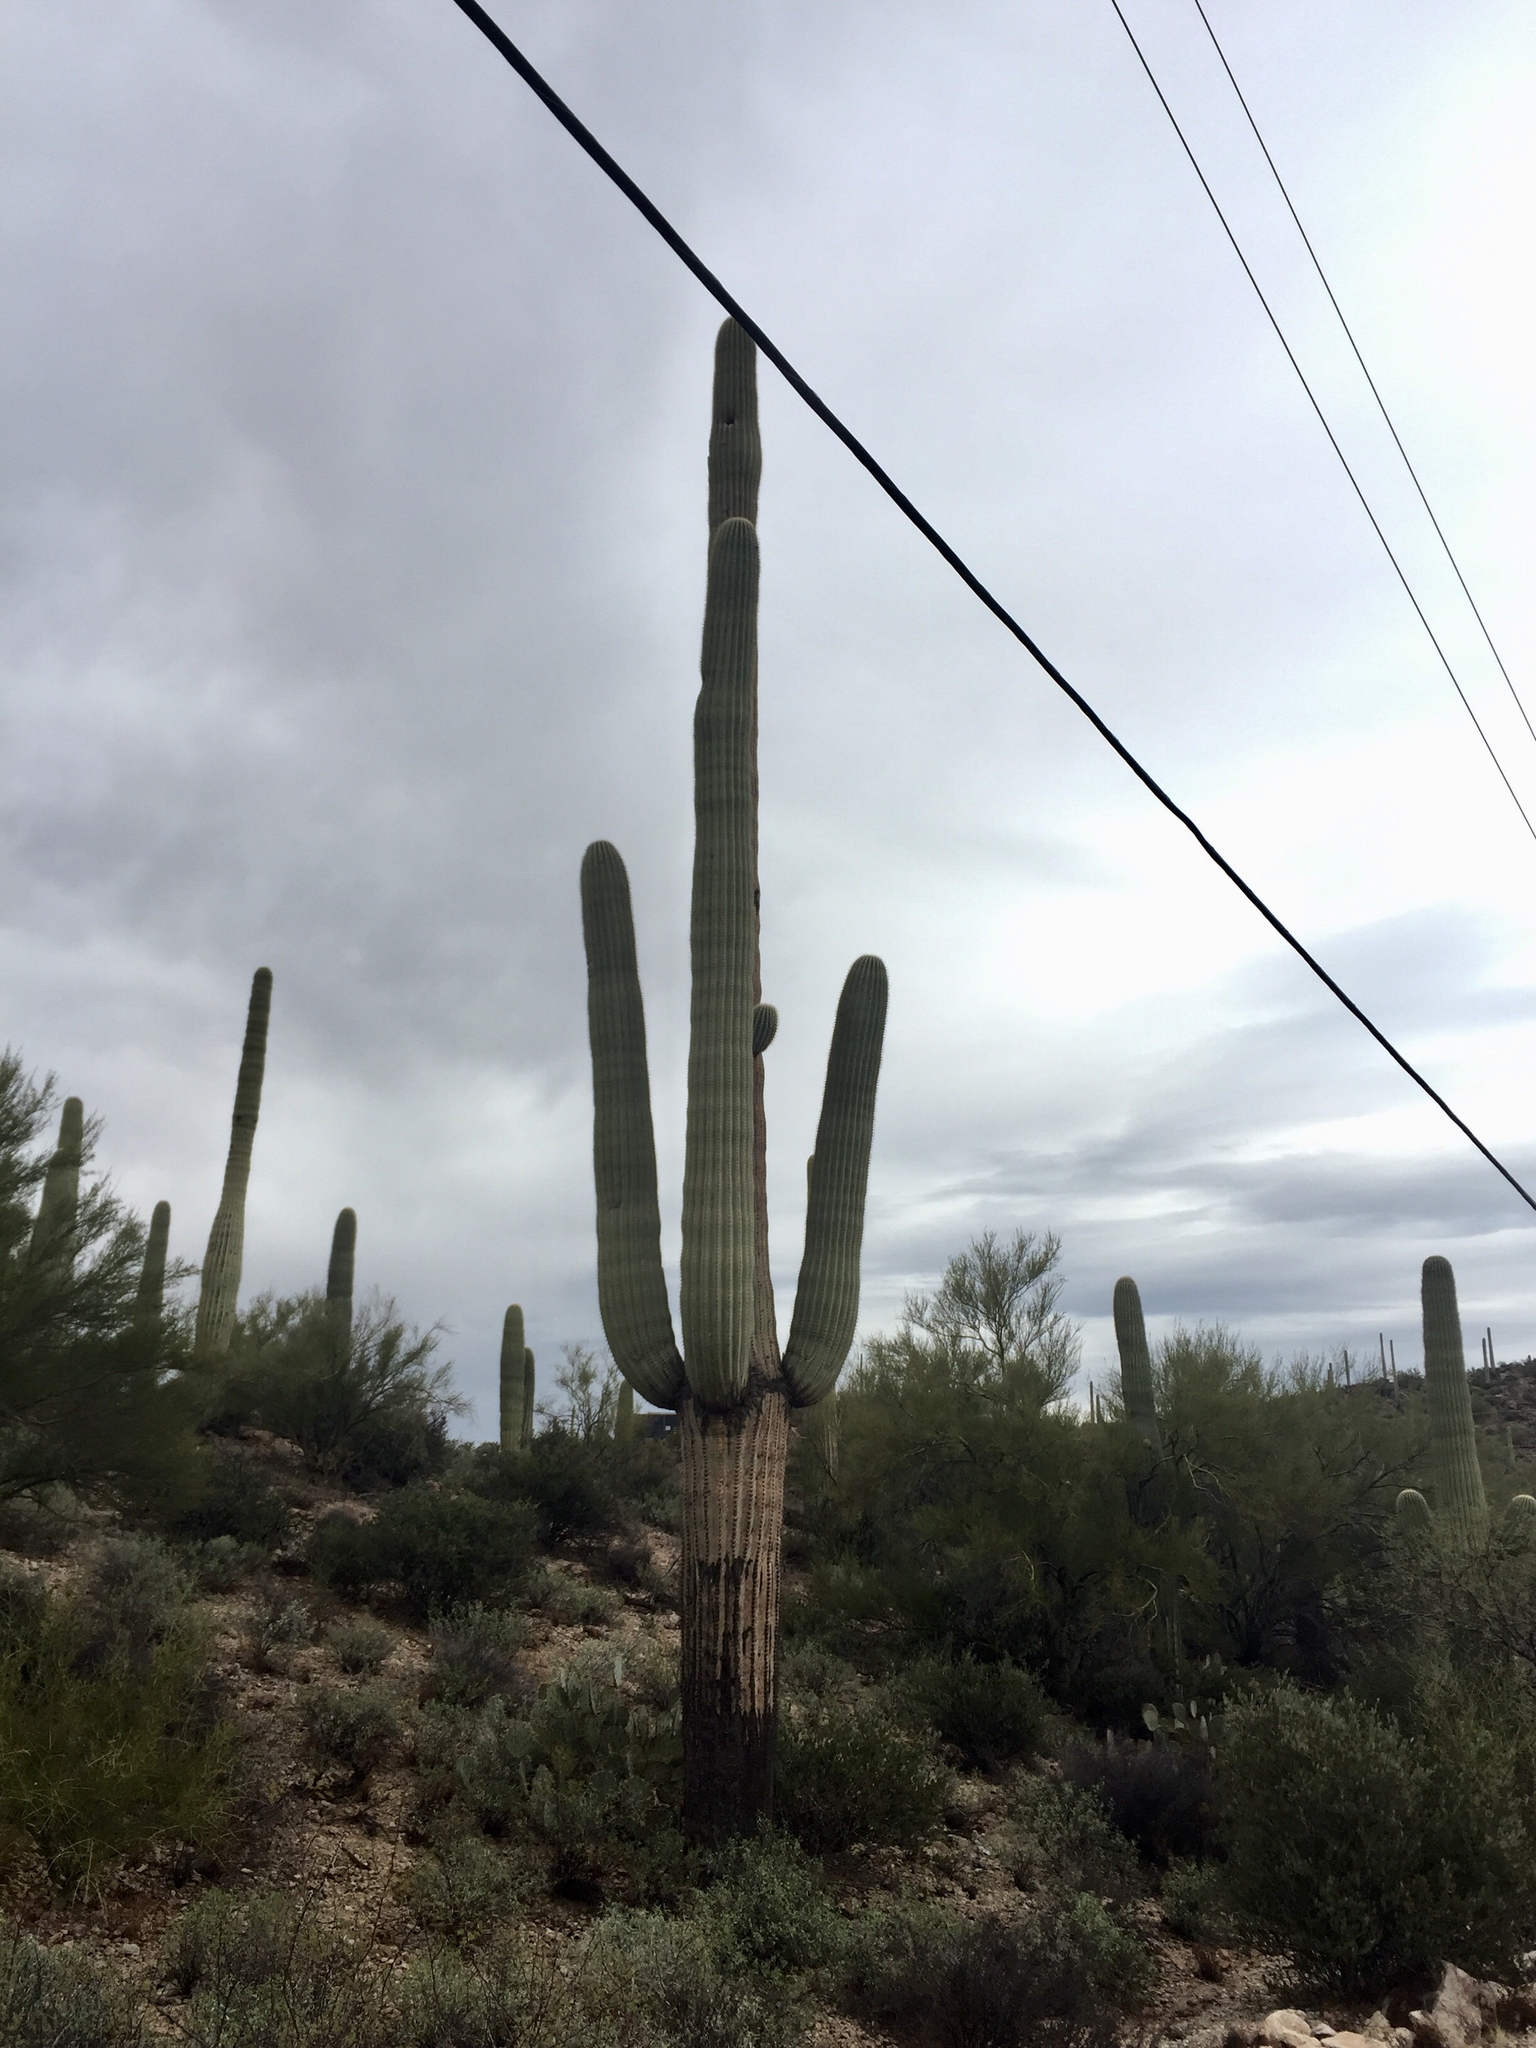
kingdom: Plantae
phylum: Tracheophyta
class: Magnoliopsida
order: Caryophyllales
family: Cactaceae
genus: Carnegiea
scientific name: Carnegiea gigantea
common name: Saguaro
